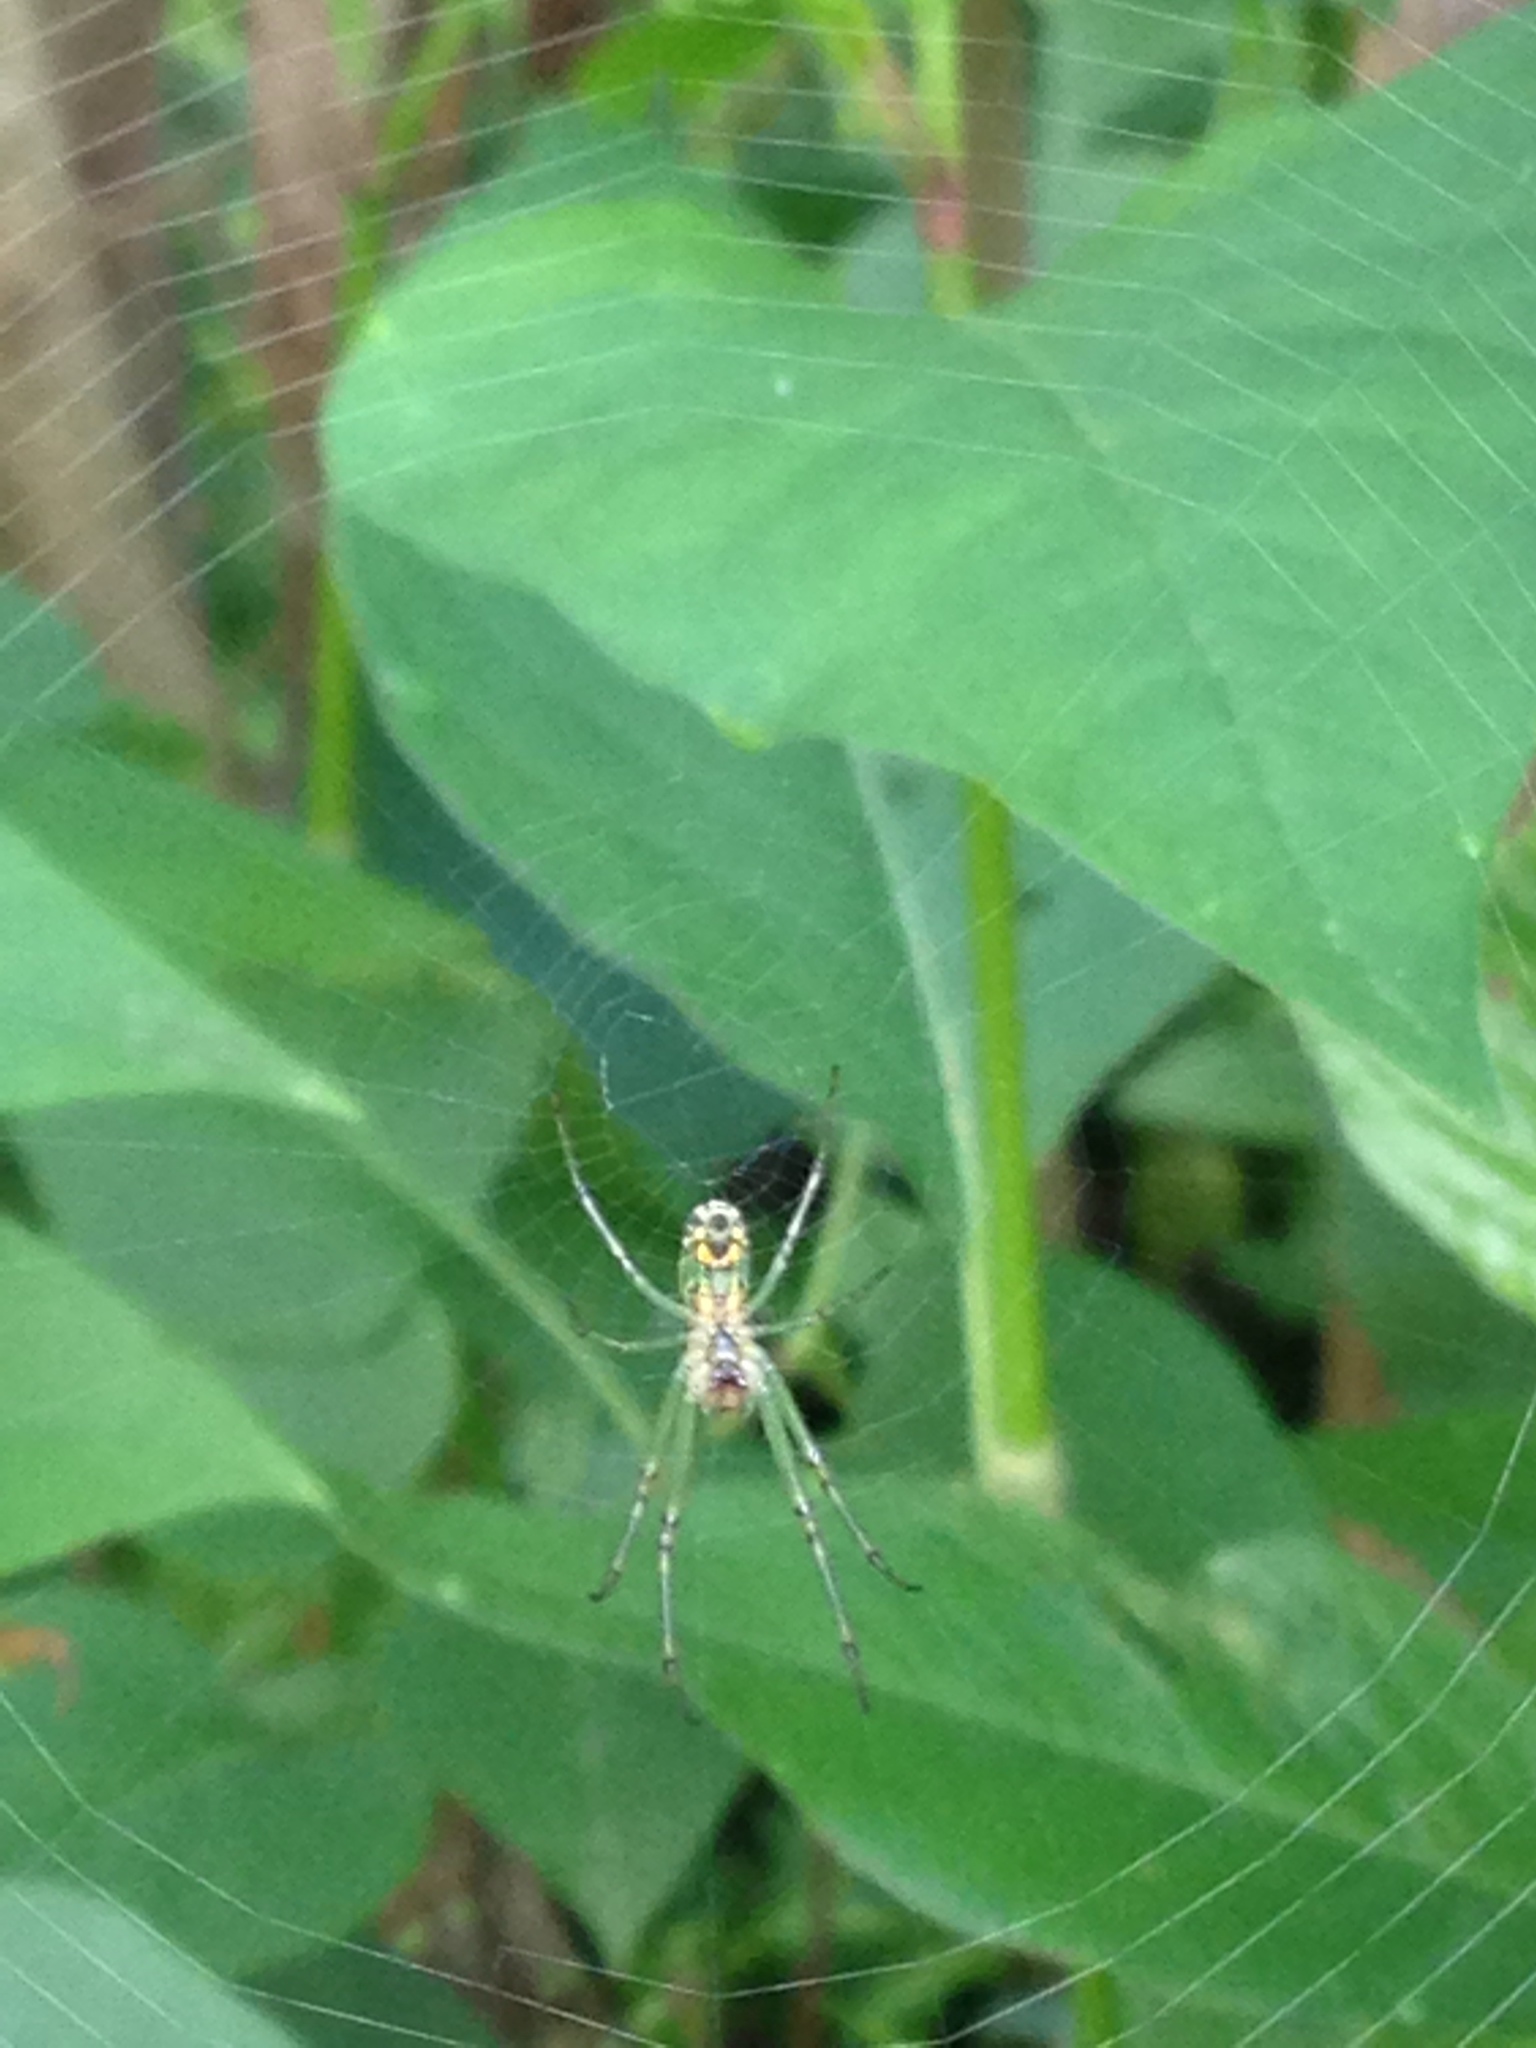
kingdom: Animalia
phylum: Arthropoda
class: Arachnida
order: Araneae
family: Tetragnathidae
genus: Leucauge
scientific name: Leucauge venusta
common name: Longjawed orb weavers
